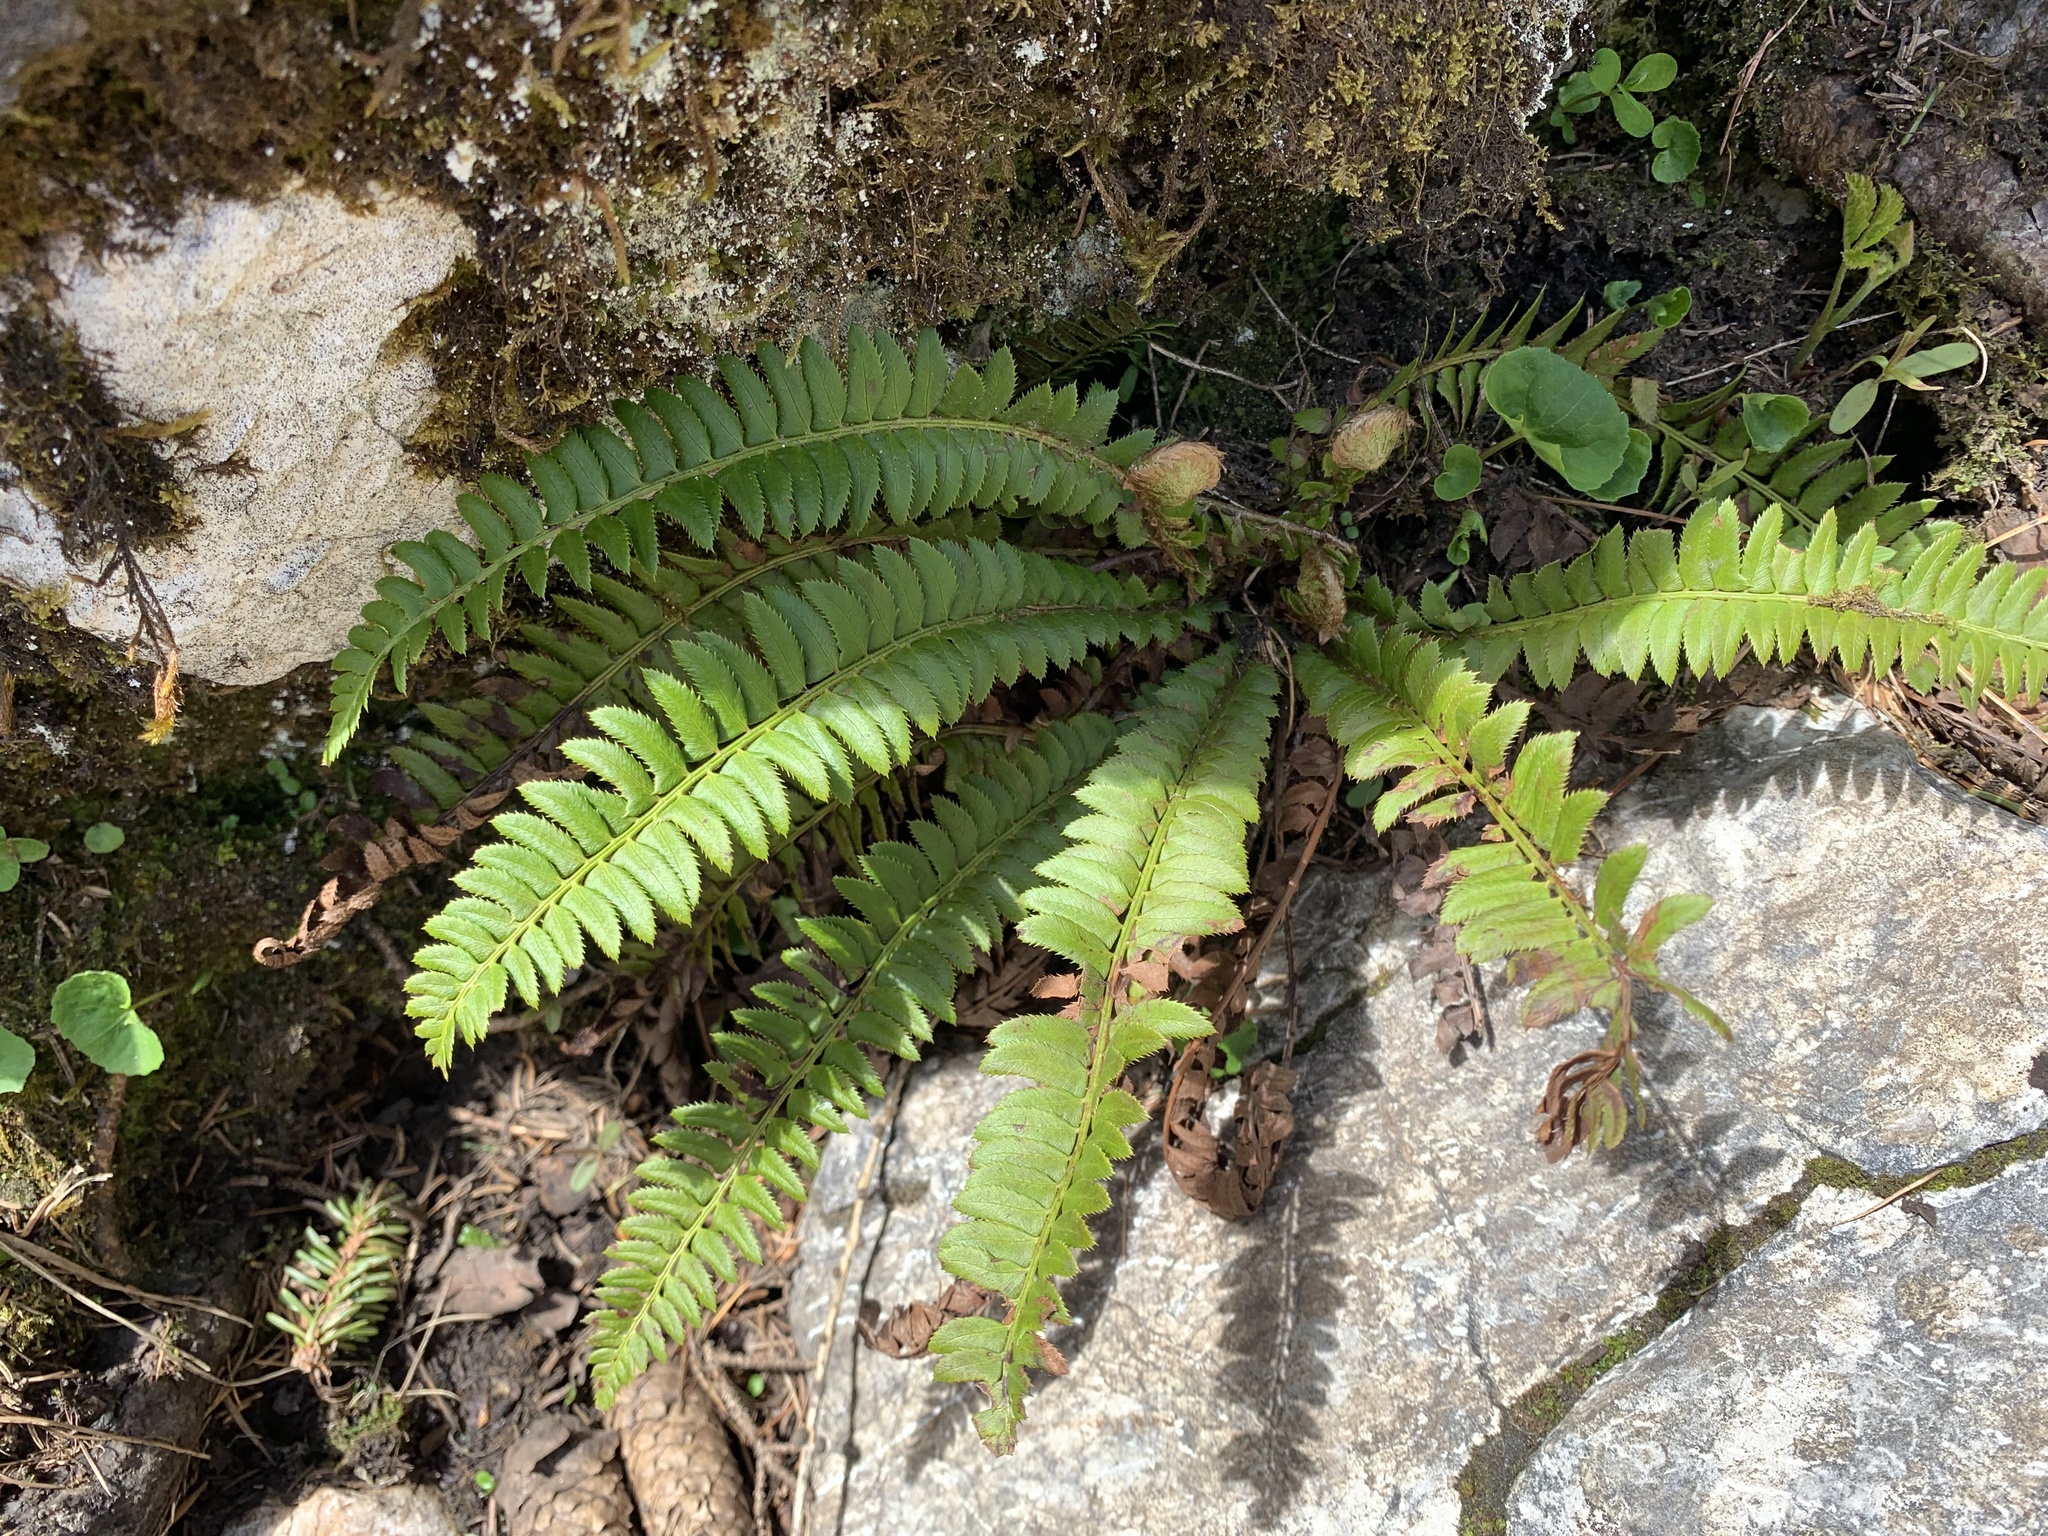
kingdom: Plantae
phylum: Tracheophyta
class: Polypodiopsida
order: Polypodiales
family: Dryopteridaceae
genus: Polystichum
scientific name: Polystichum lonchitis
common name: Holly fern
